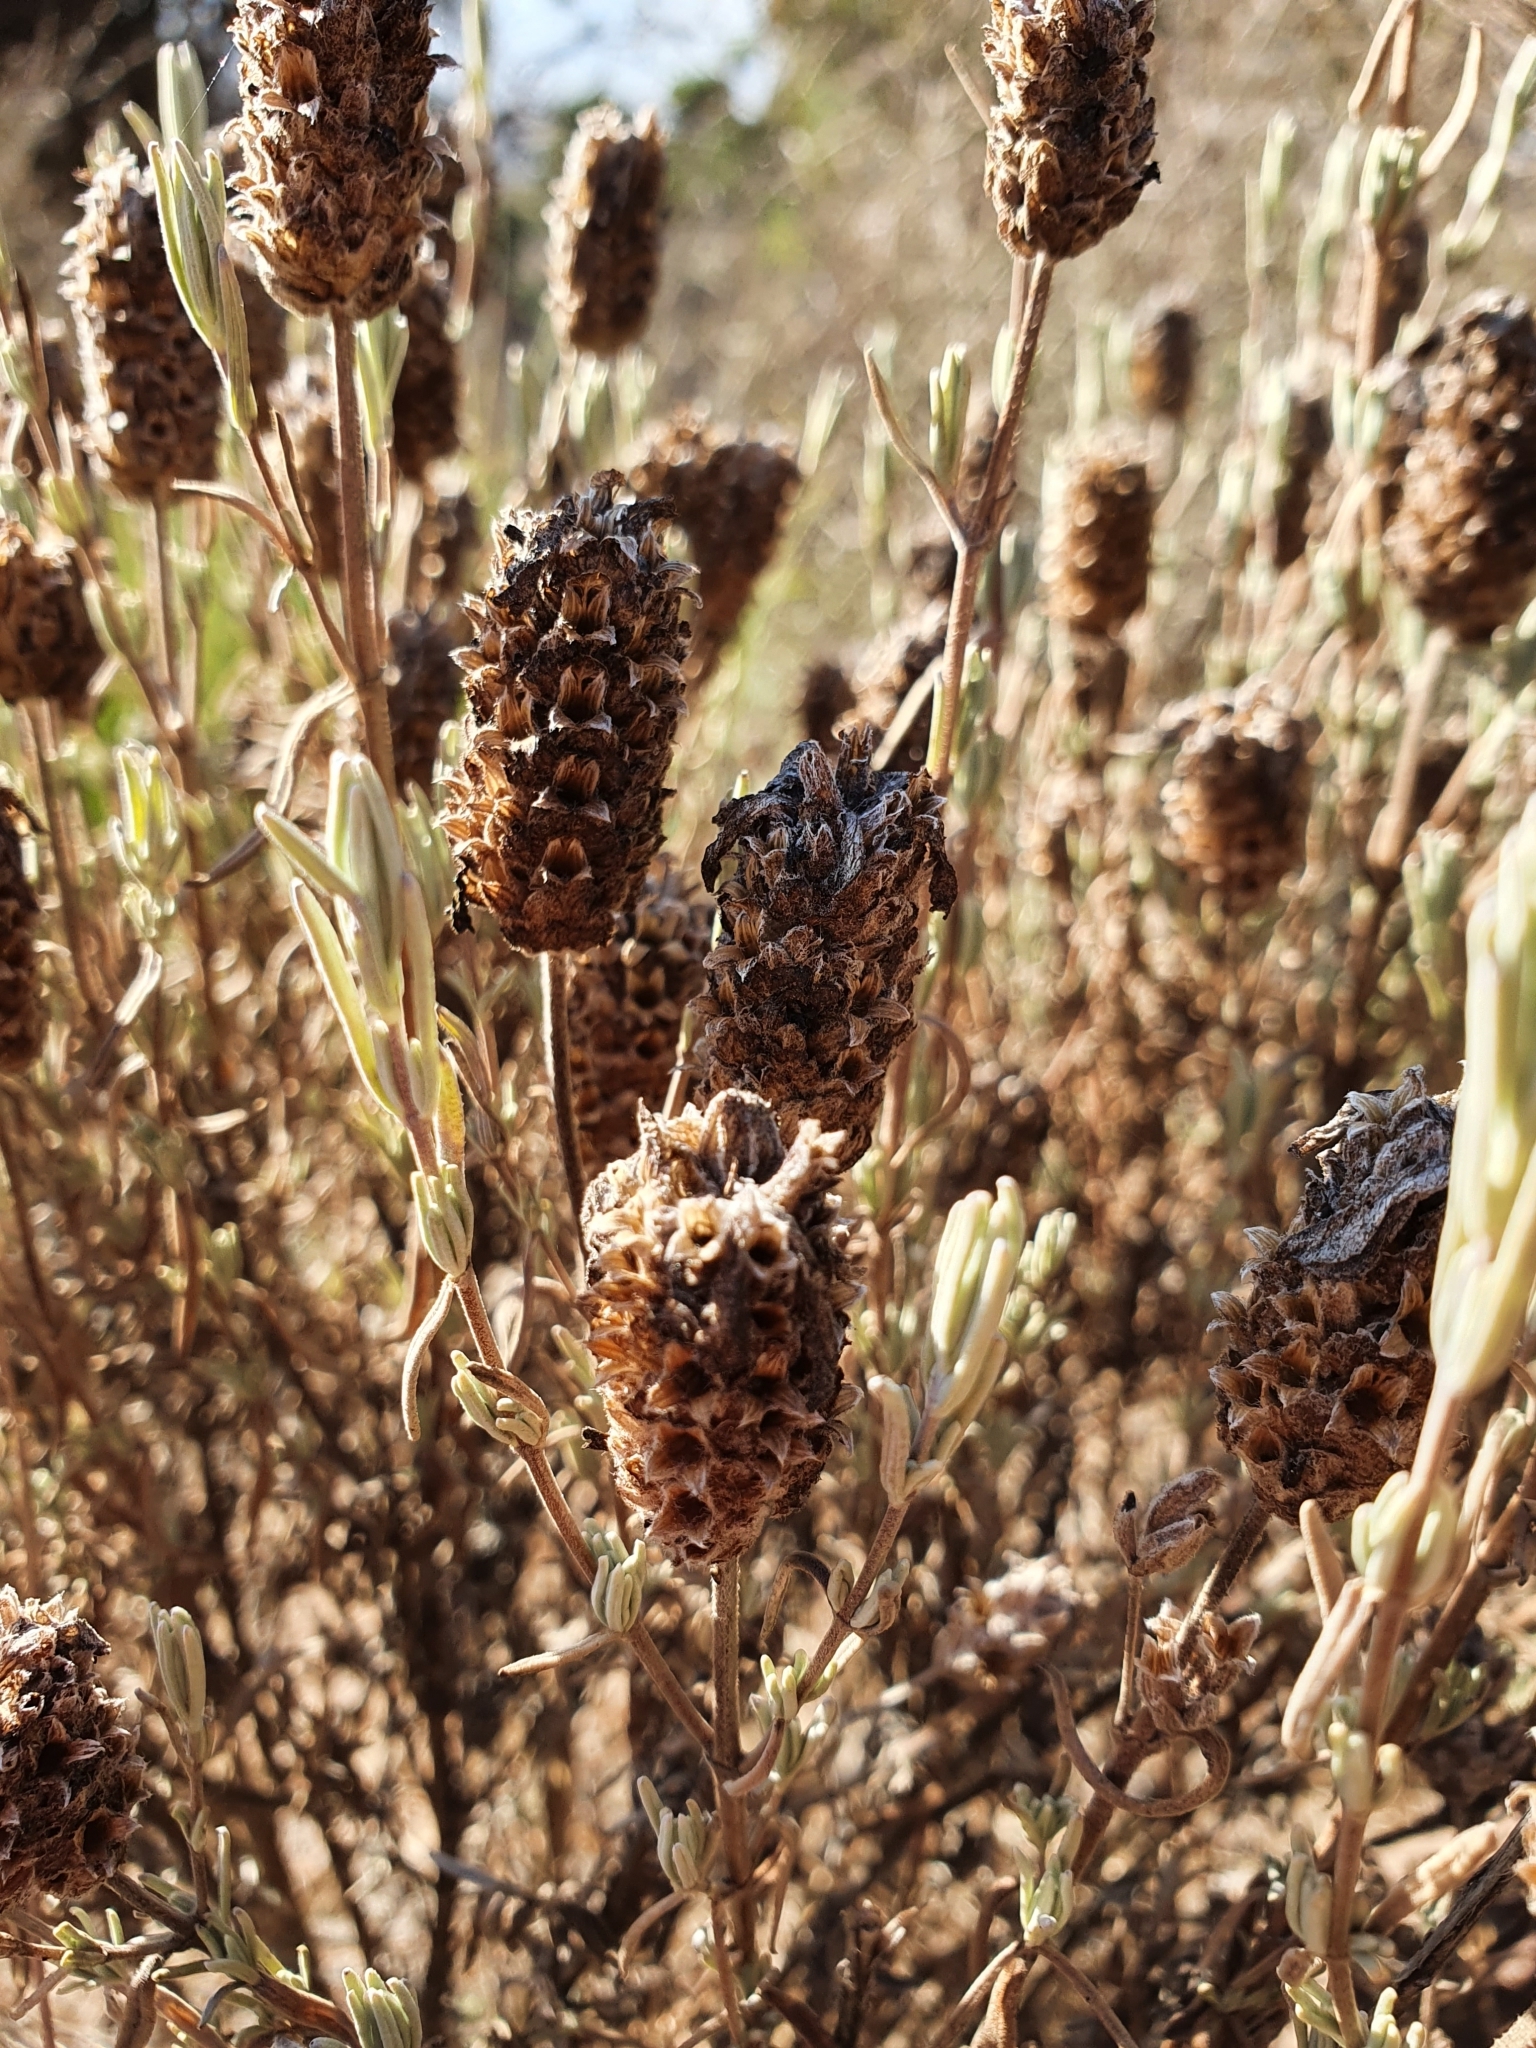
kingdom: Plantae
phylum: Tracheophyta
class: Magnoliopsida
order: Lamiales
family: Lamiaceae
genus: Lavandula
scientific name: Lavandula stoechas
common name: French lavender
